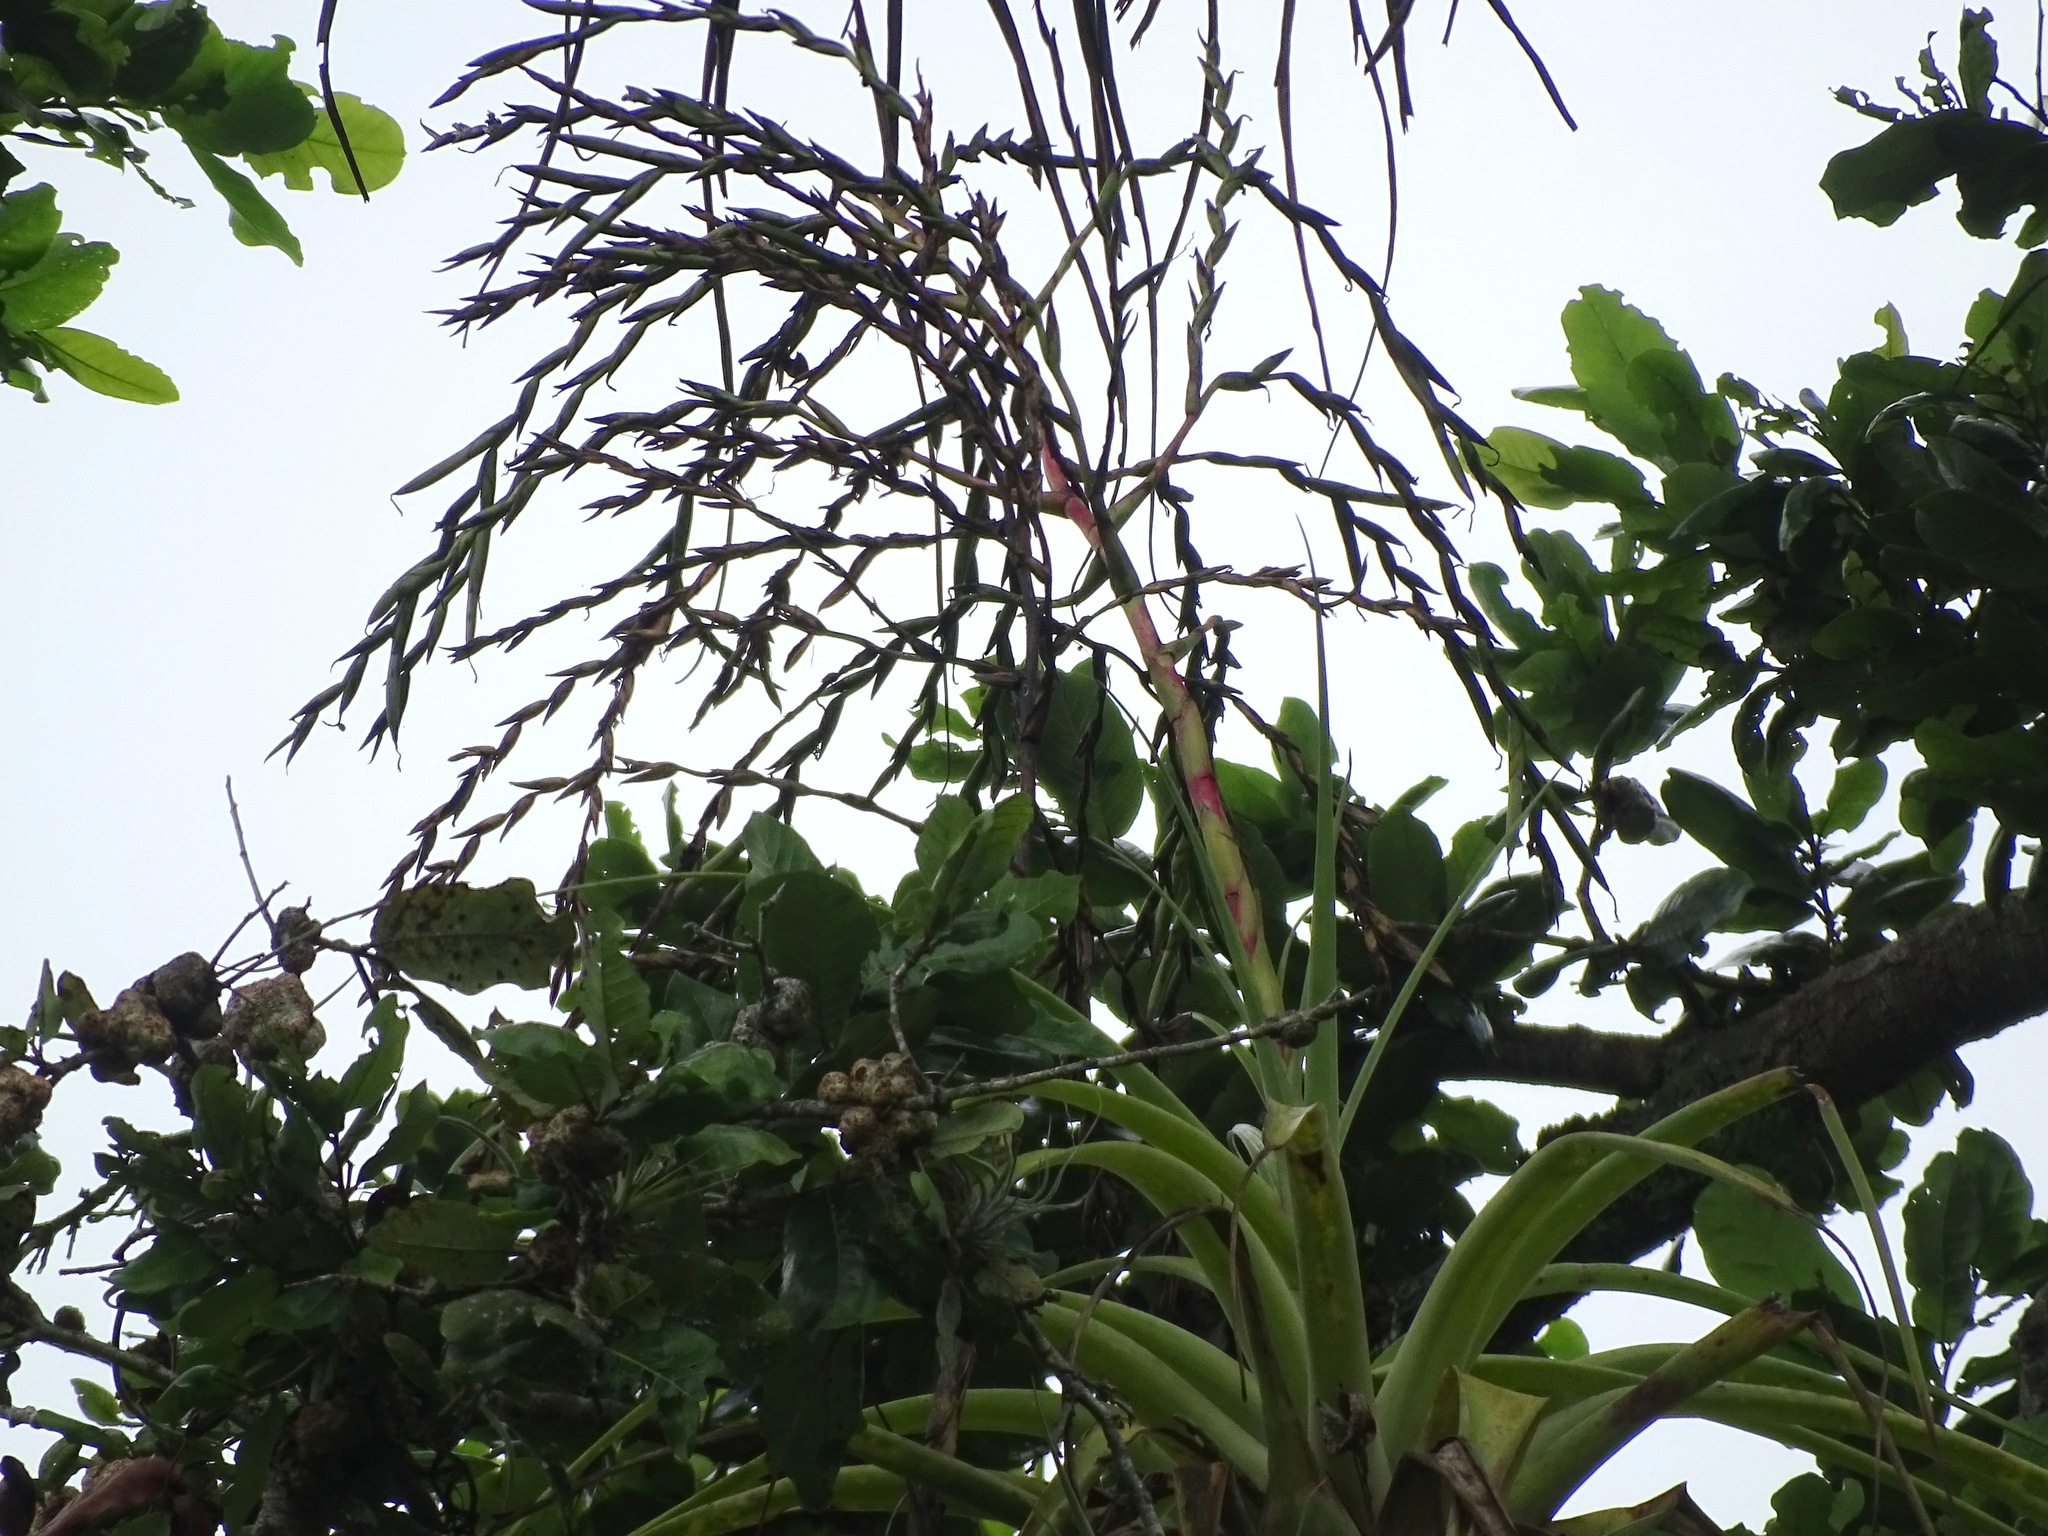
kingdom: Plantae
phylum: Tracheophyta
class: Liliopsida
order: Poales
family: Bromeliaceae
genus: Tillandsia
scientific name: Tillandsia dasyliriifolia
